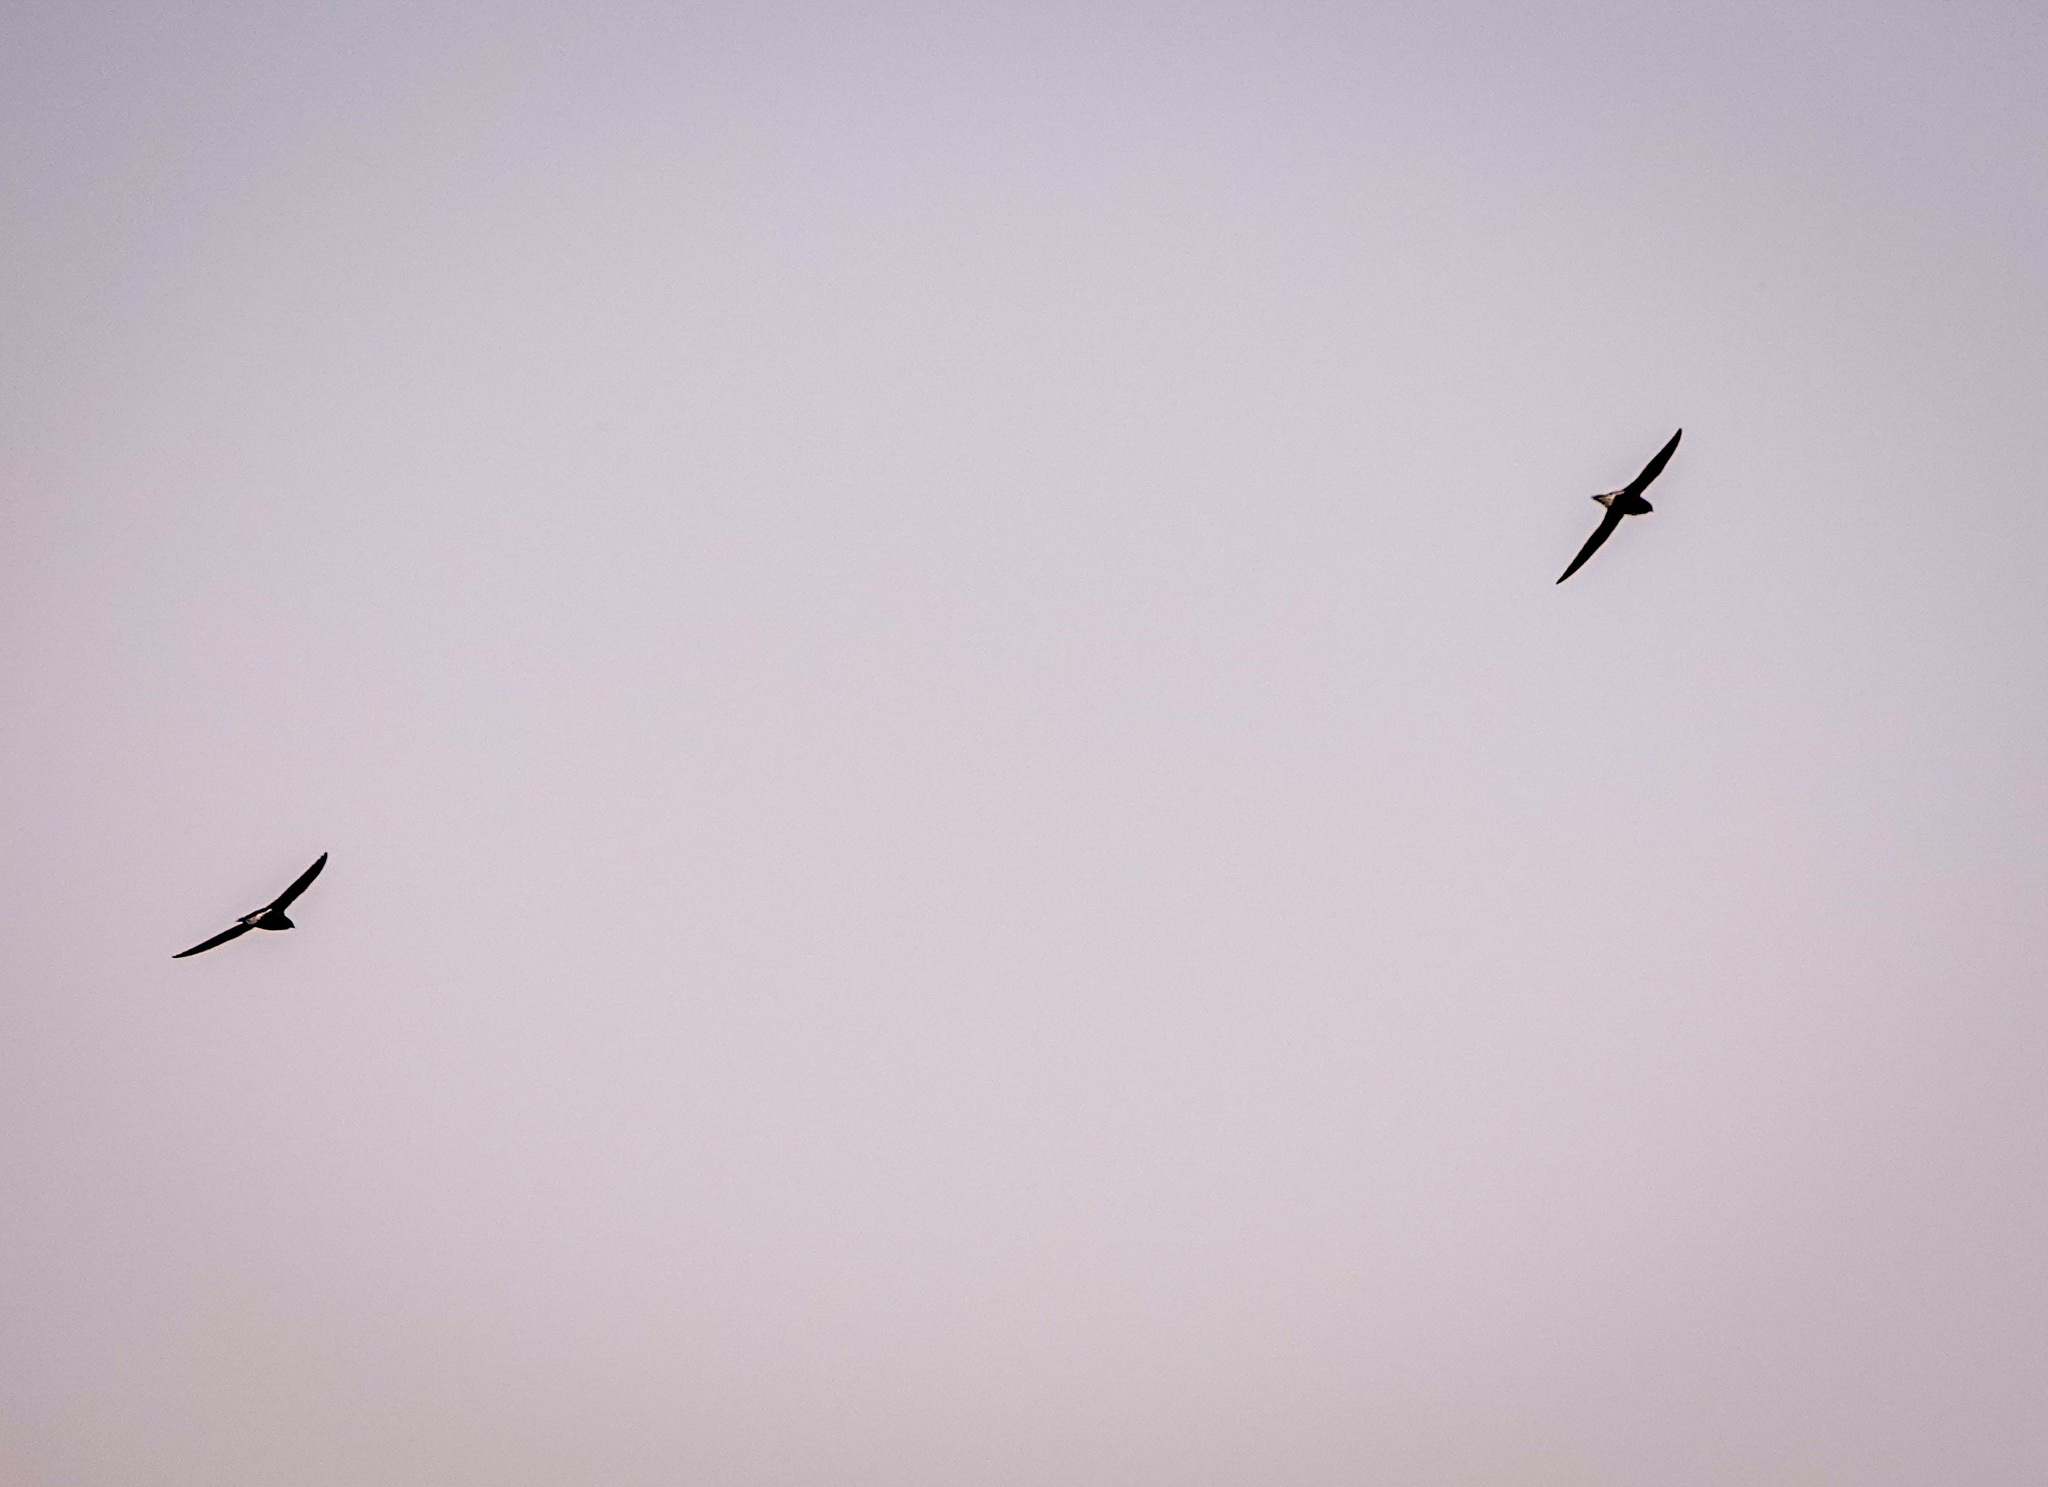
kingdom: Animalia
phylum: Chordata
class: Aves
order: Apodiformes
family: Apodidae
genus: Hirundapus
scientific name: Hirundapus giganteus
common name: Brown-backed needletail
